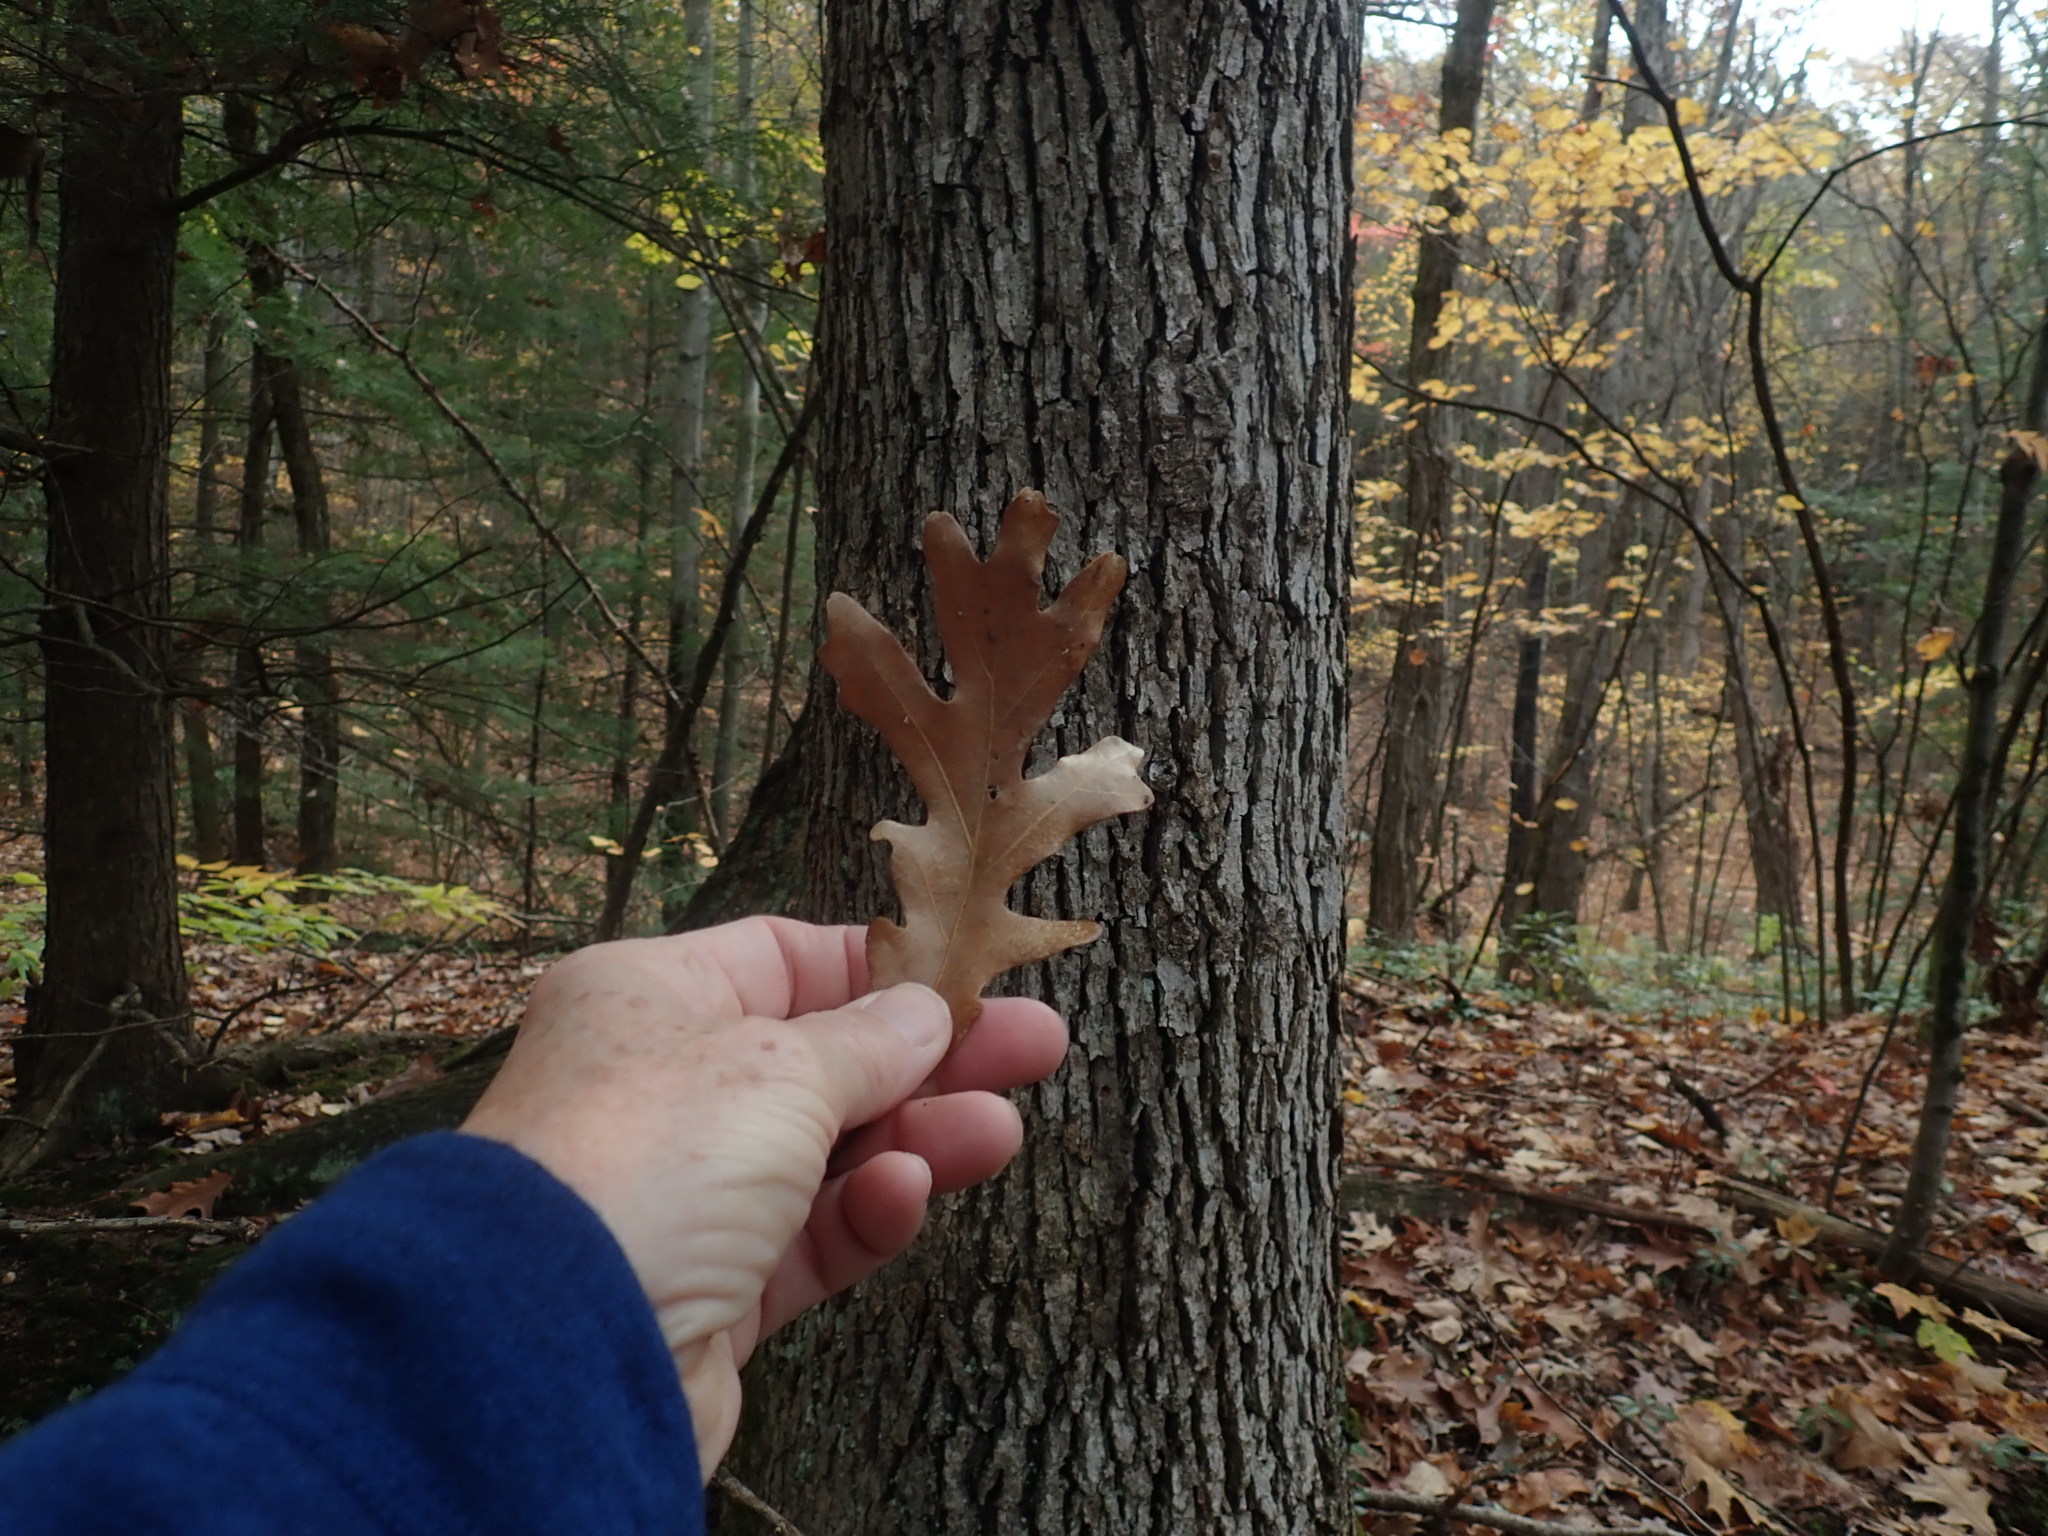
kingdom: Plantae
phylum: Tracheophyta
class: Magnoliopsida
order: Fagales
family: Fagaceae
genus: Quercus
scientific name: Quercus alba
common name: White oak
